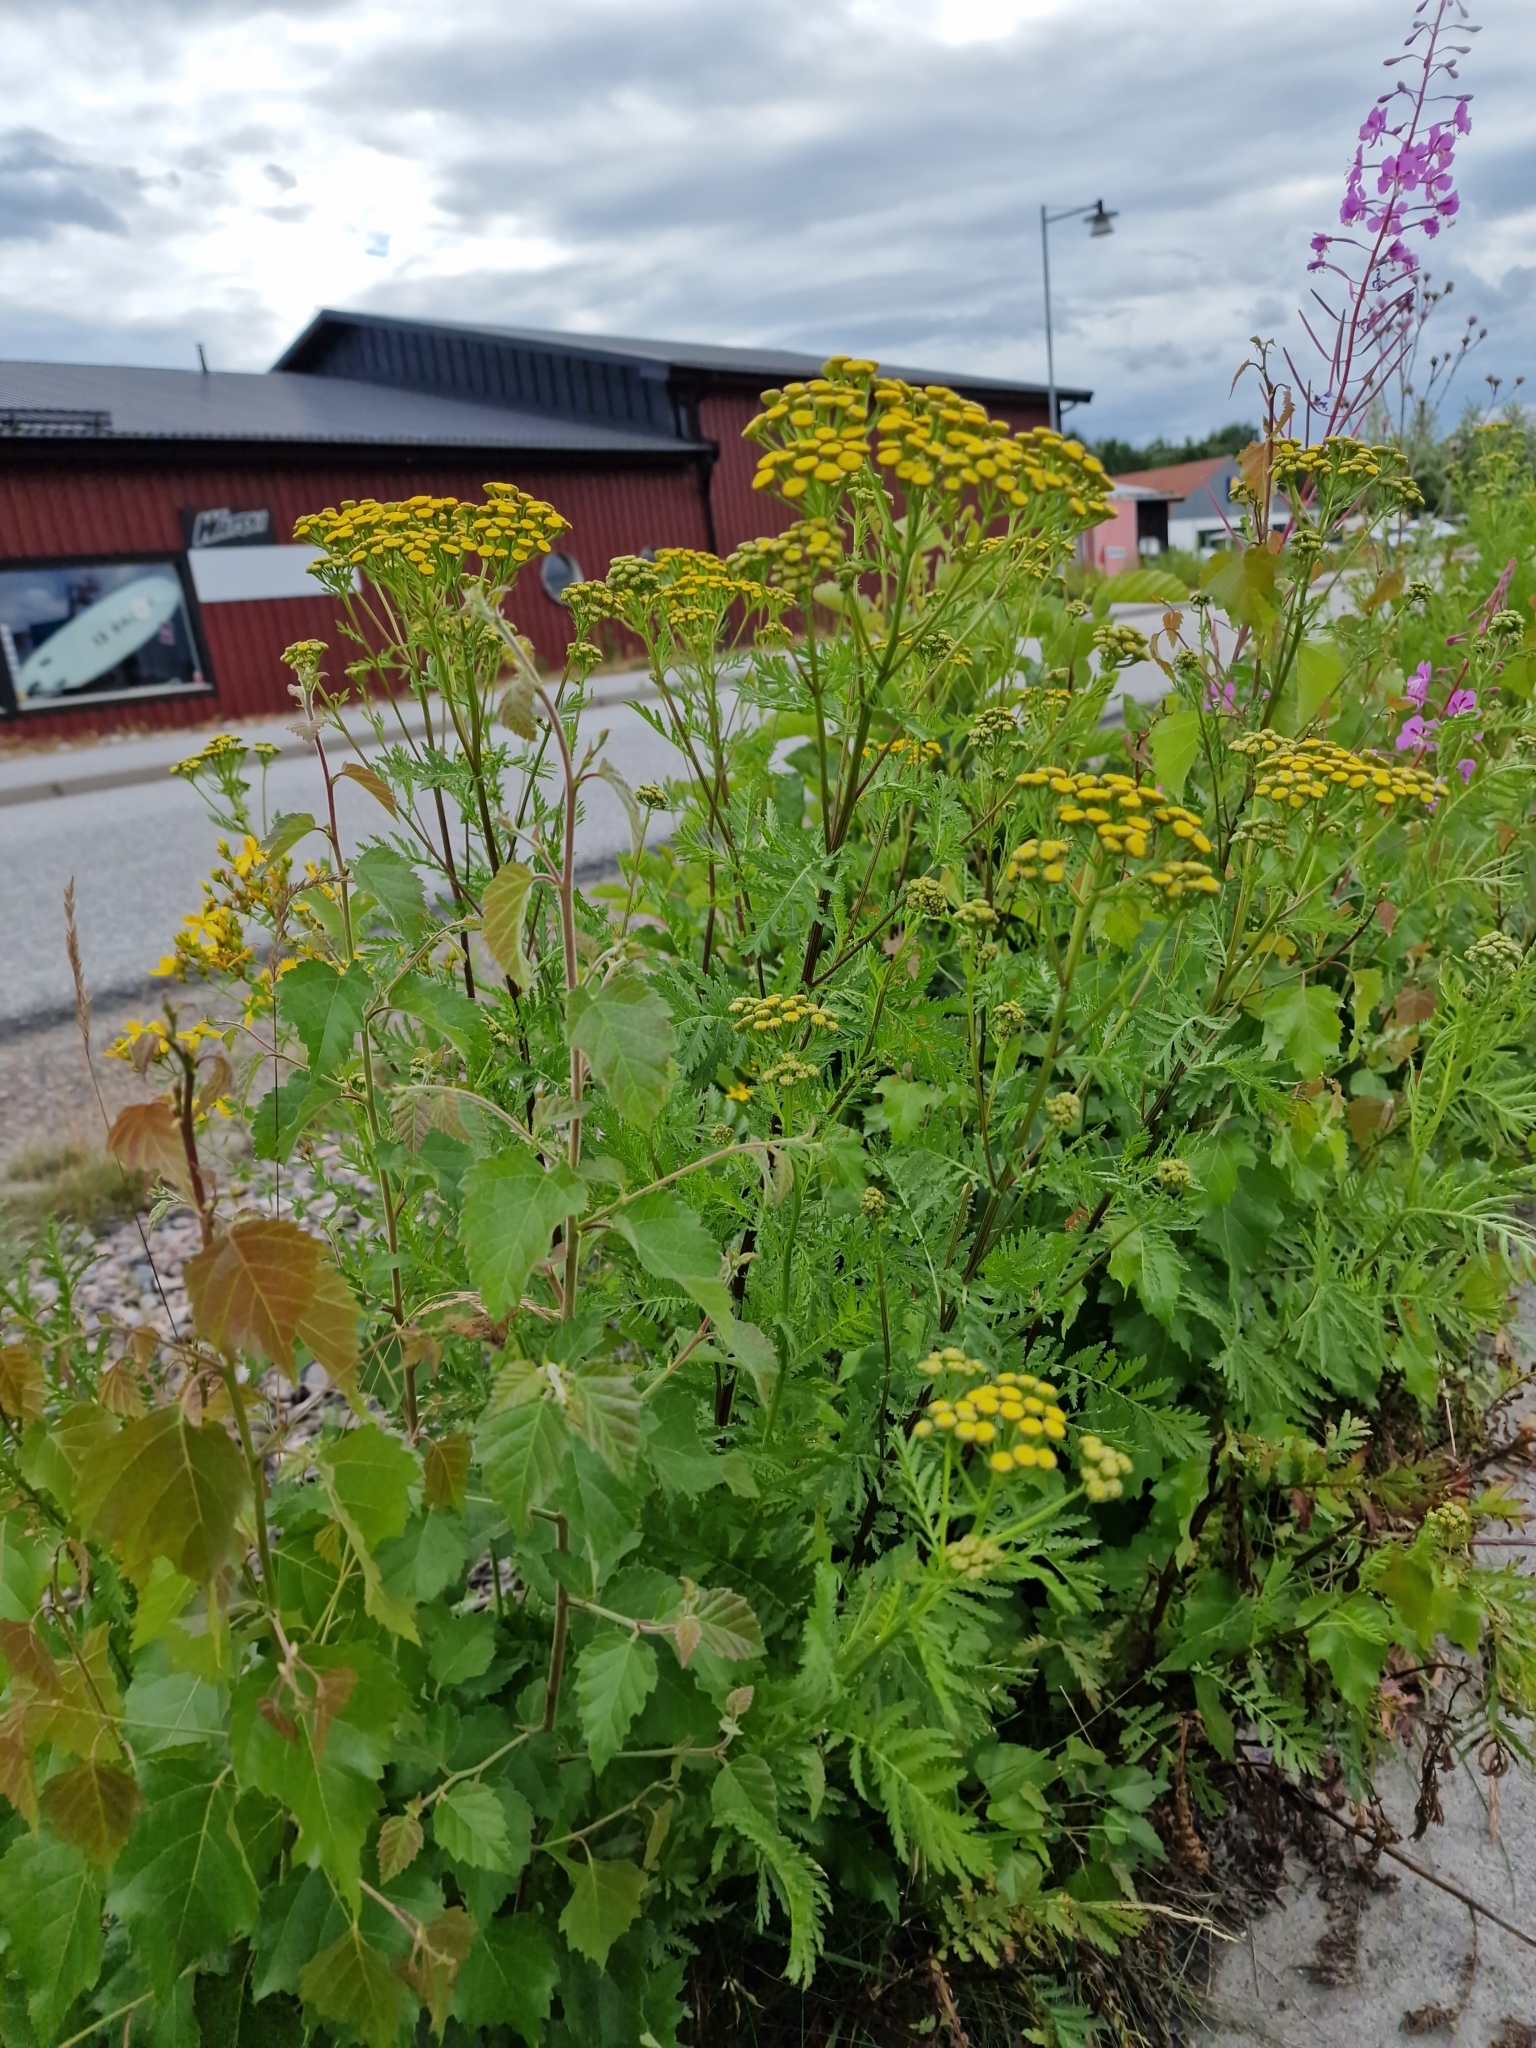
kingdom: Plantae
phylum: Tracheophyta
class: Magnoliopsida
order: Asterales
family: Asteraceae
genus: Tanacetum
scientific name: Tanacetum vulgare
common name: Common tansy
